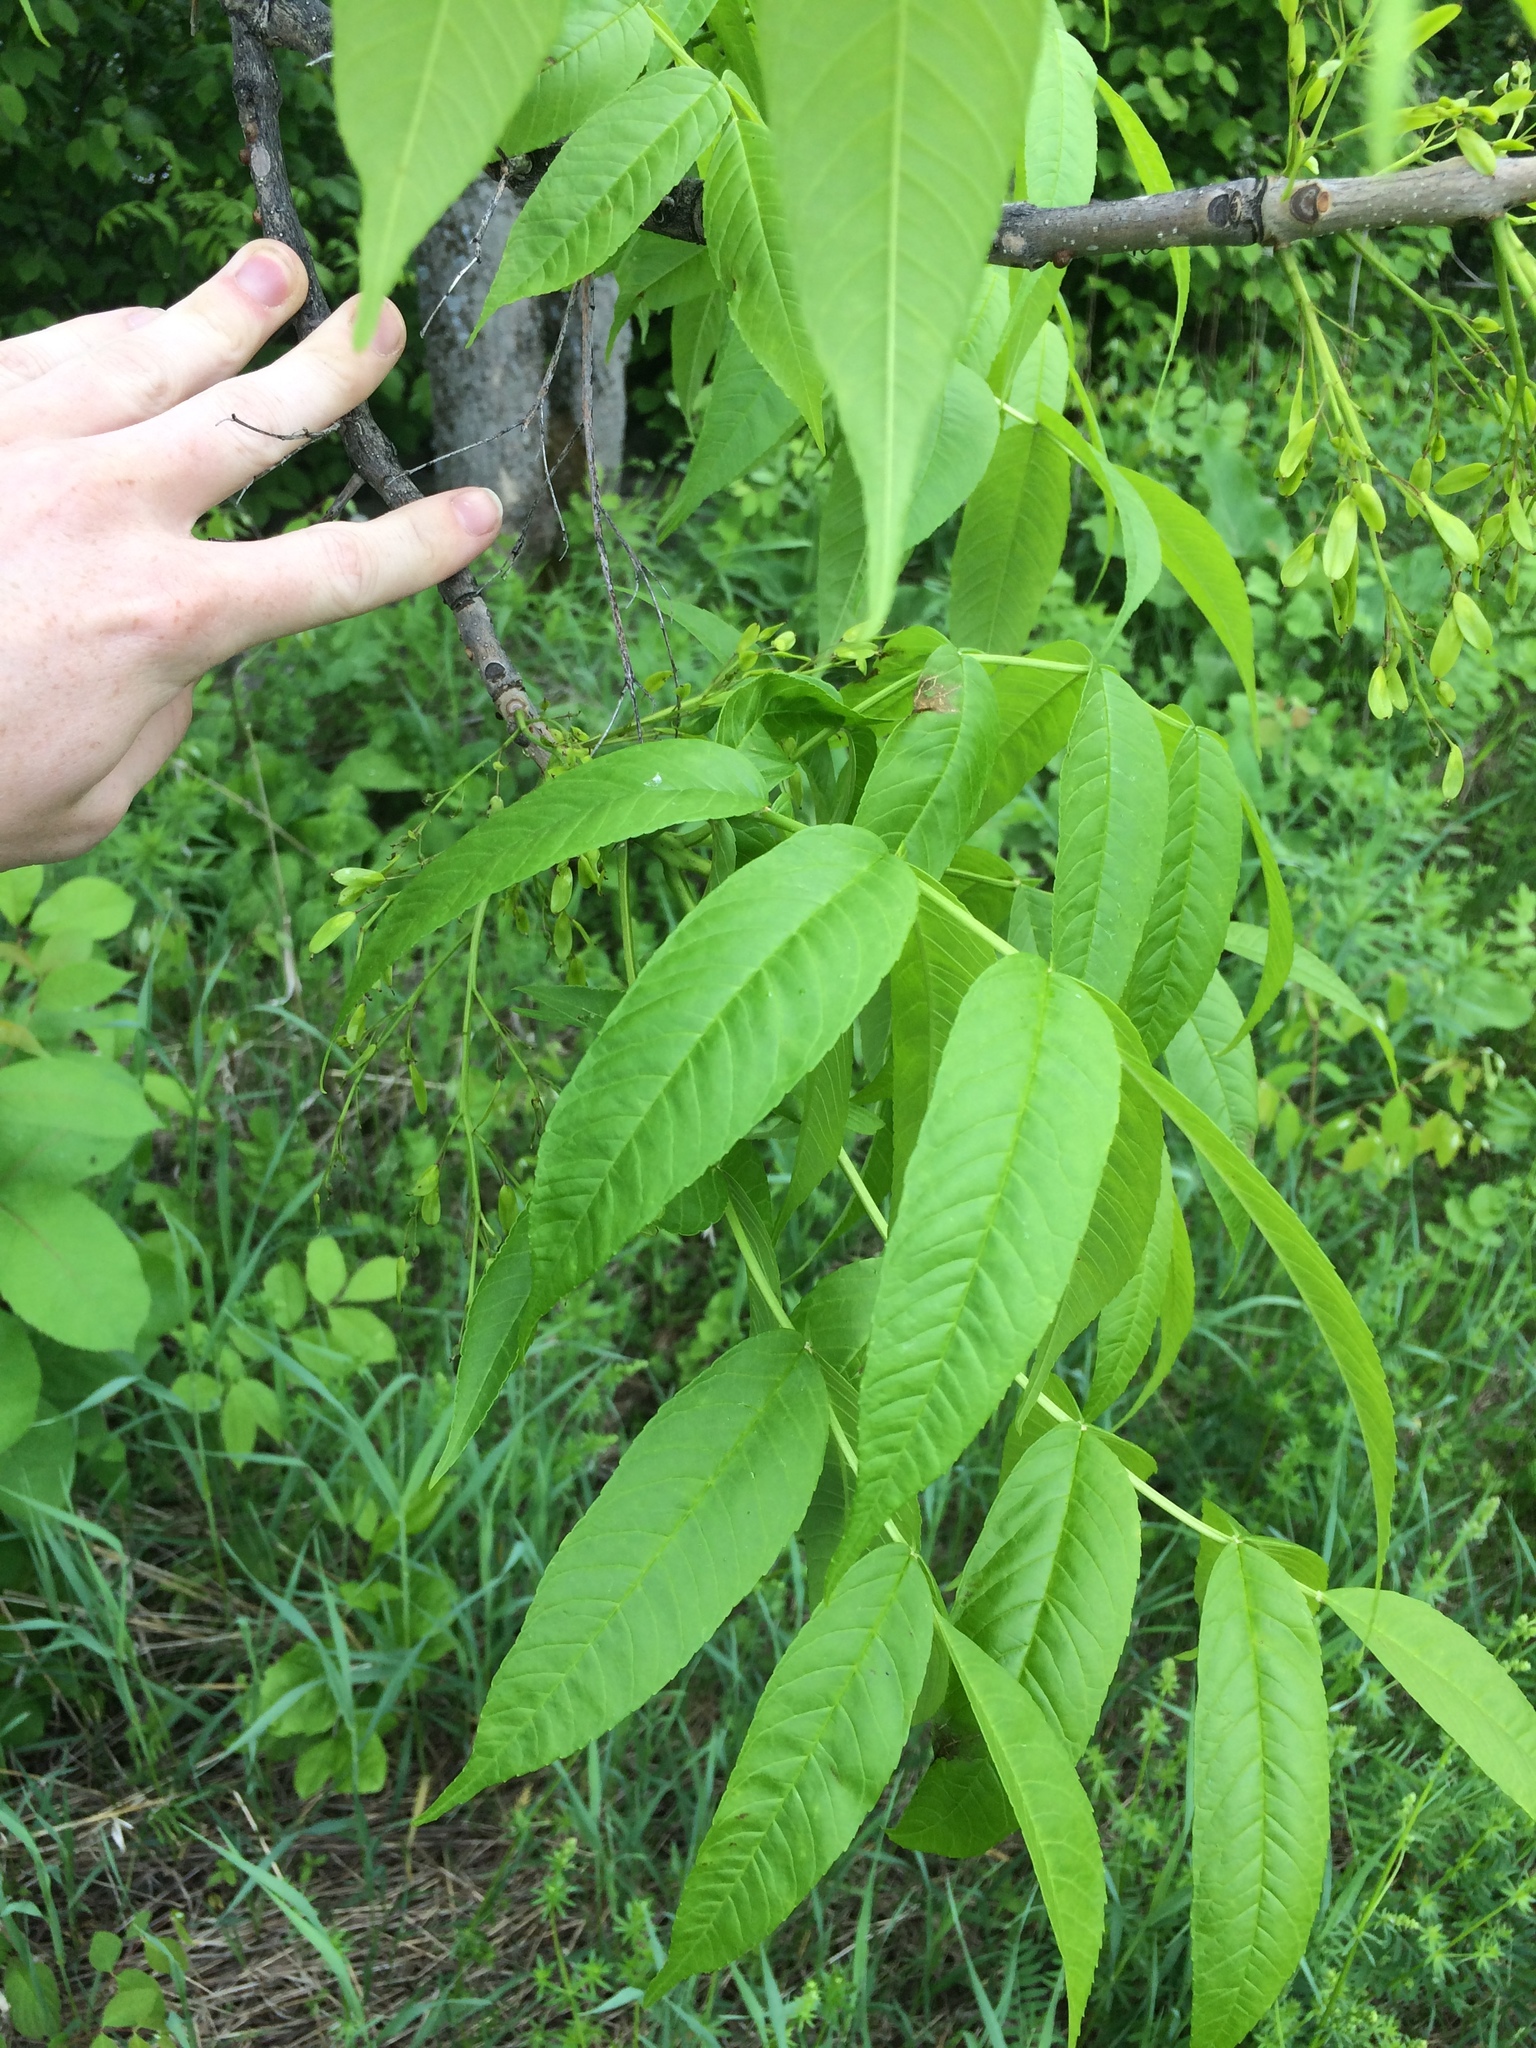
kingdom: Plantae
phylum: Tracheophyta
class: Magnoliopsida
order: Lamiales
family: Oleaceae
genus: Fraxinus
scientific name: Fraxinus nigra
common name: Black ash
